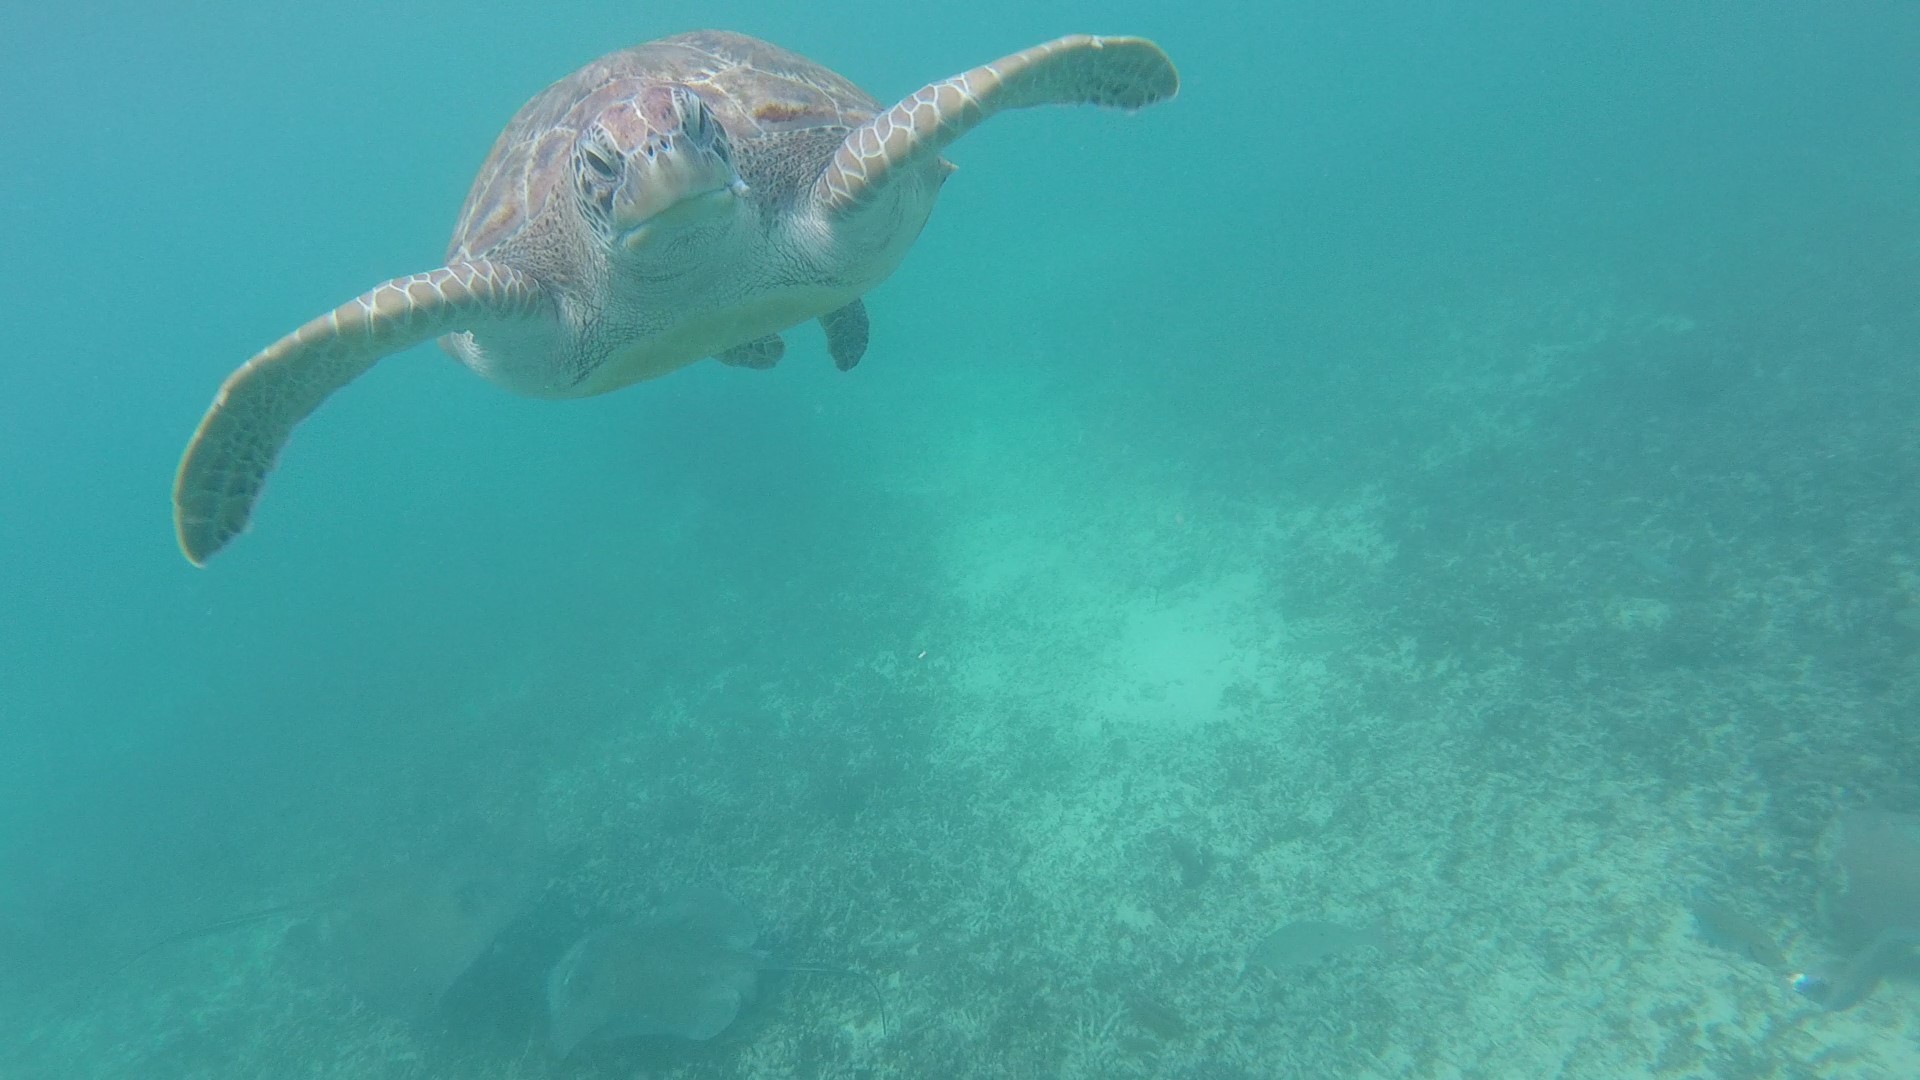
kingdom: Animalia
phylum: Chordata
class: Testudines
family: Cheloniidae
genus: Chelonia
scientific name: Chelonia mydas
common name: Green turtle
